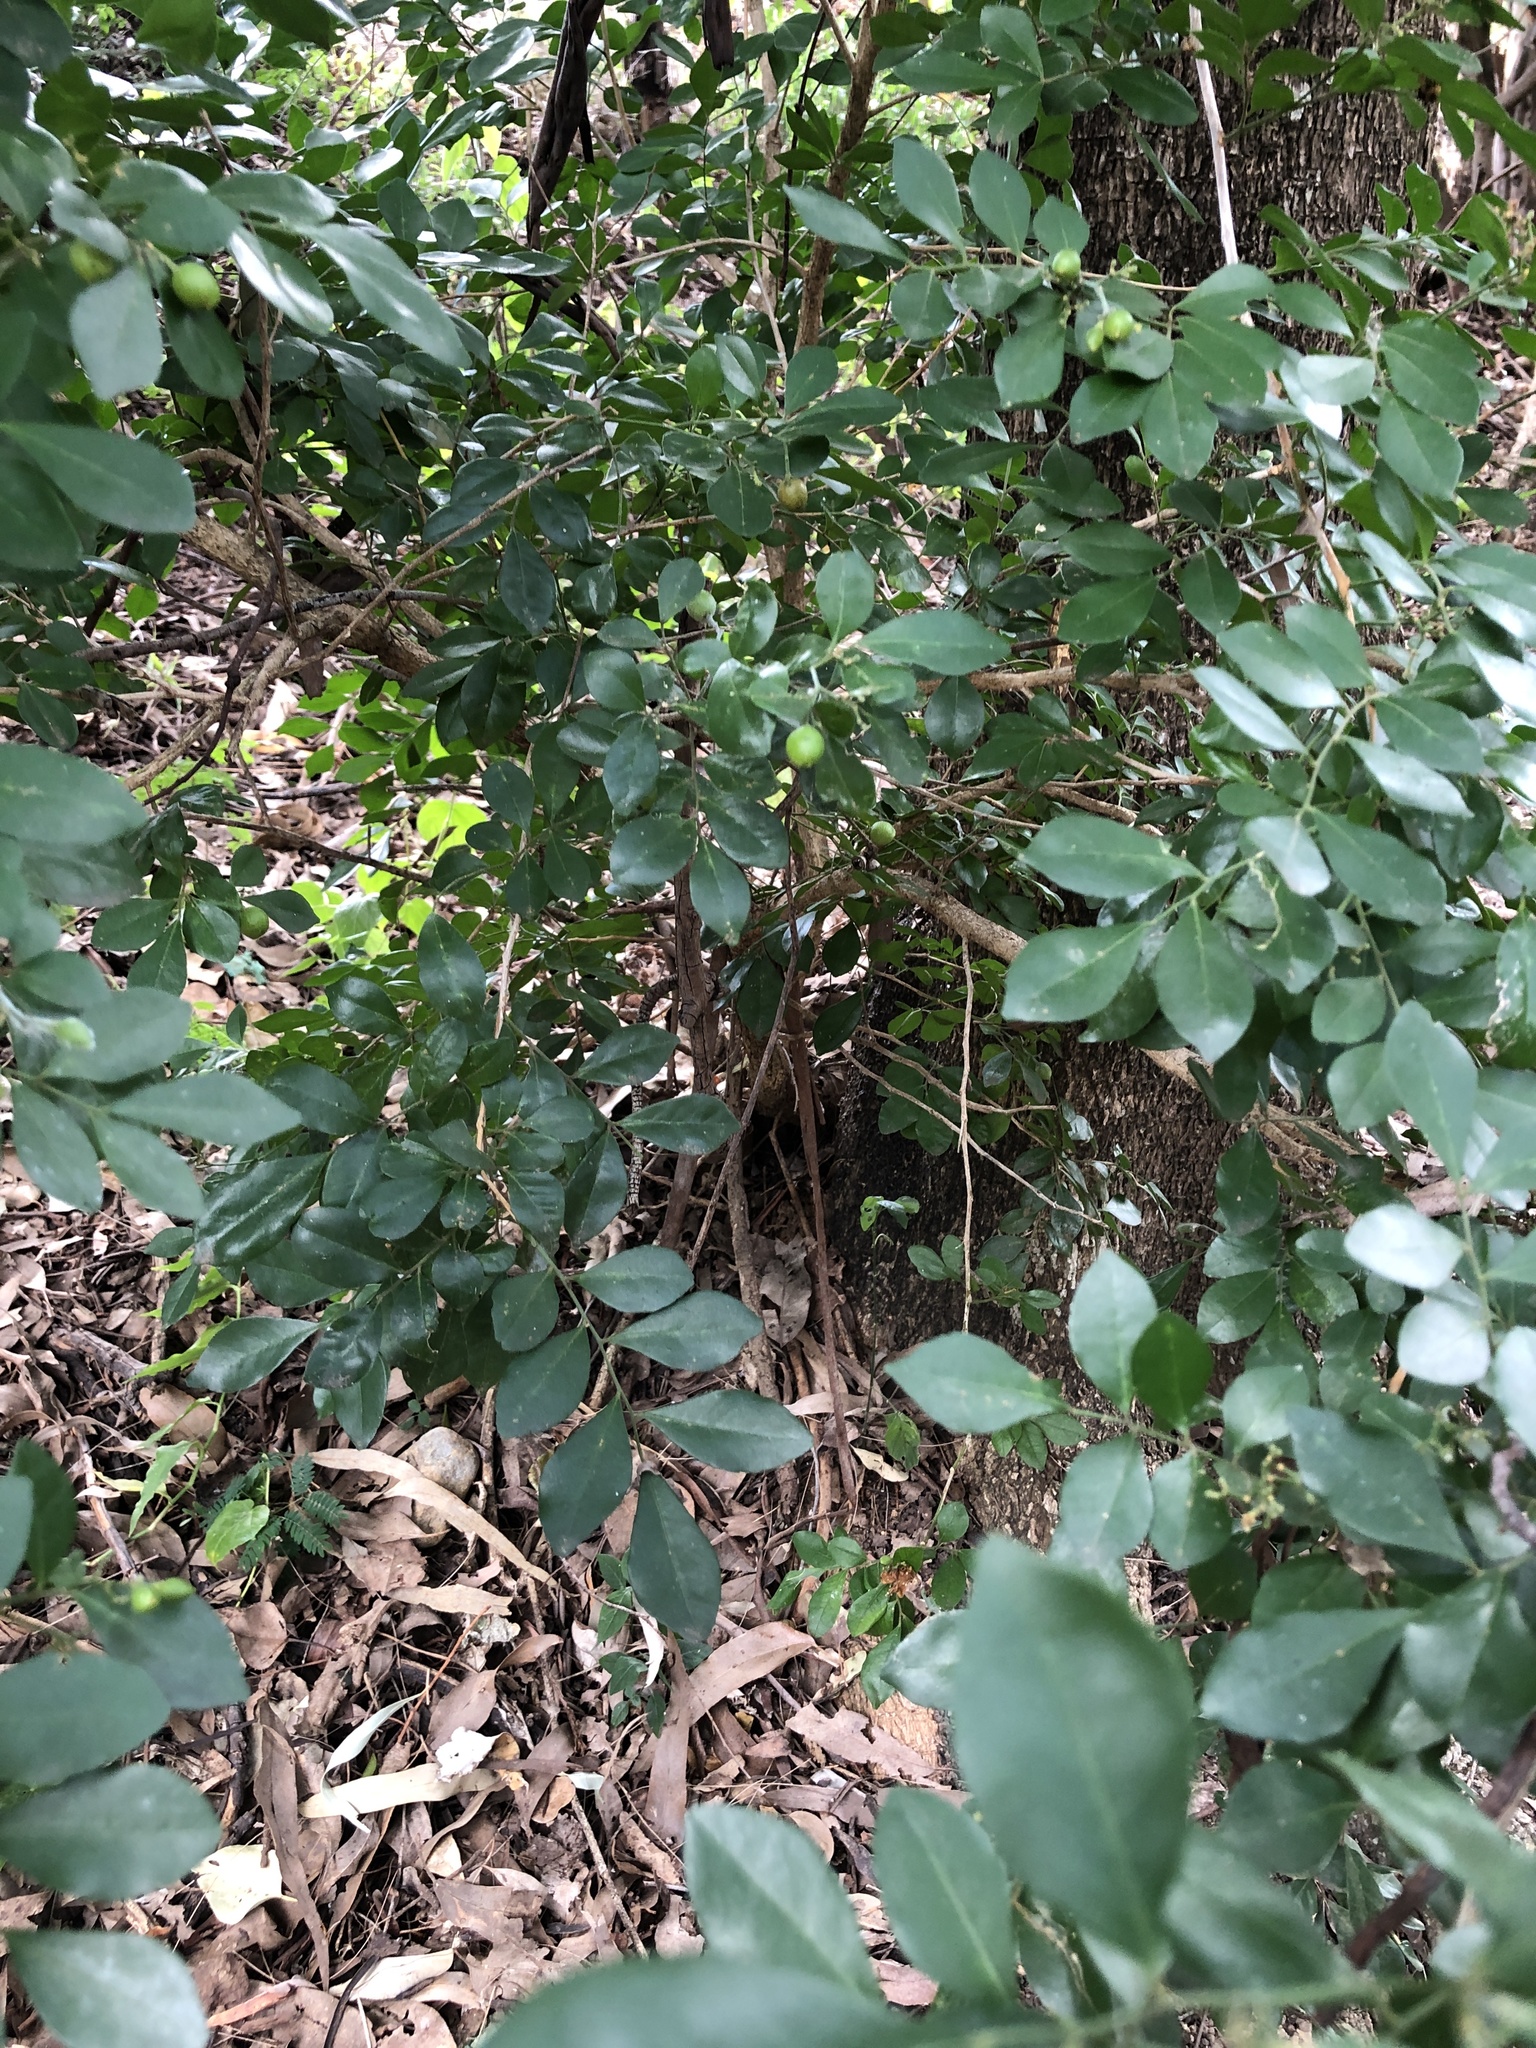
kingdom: Plantae
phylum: Tracheophyta
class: Magnoliopsida
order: Sapindales
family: Rutaceae
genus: Murraya
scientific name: Murraya paniculata
